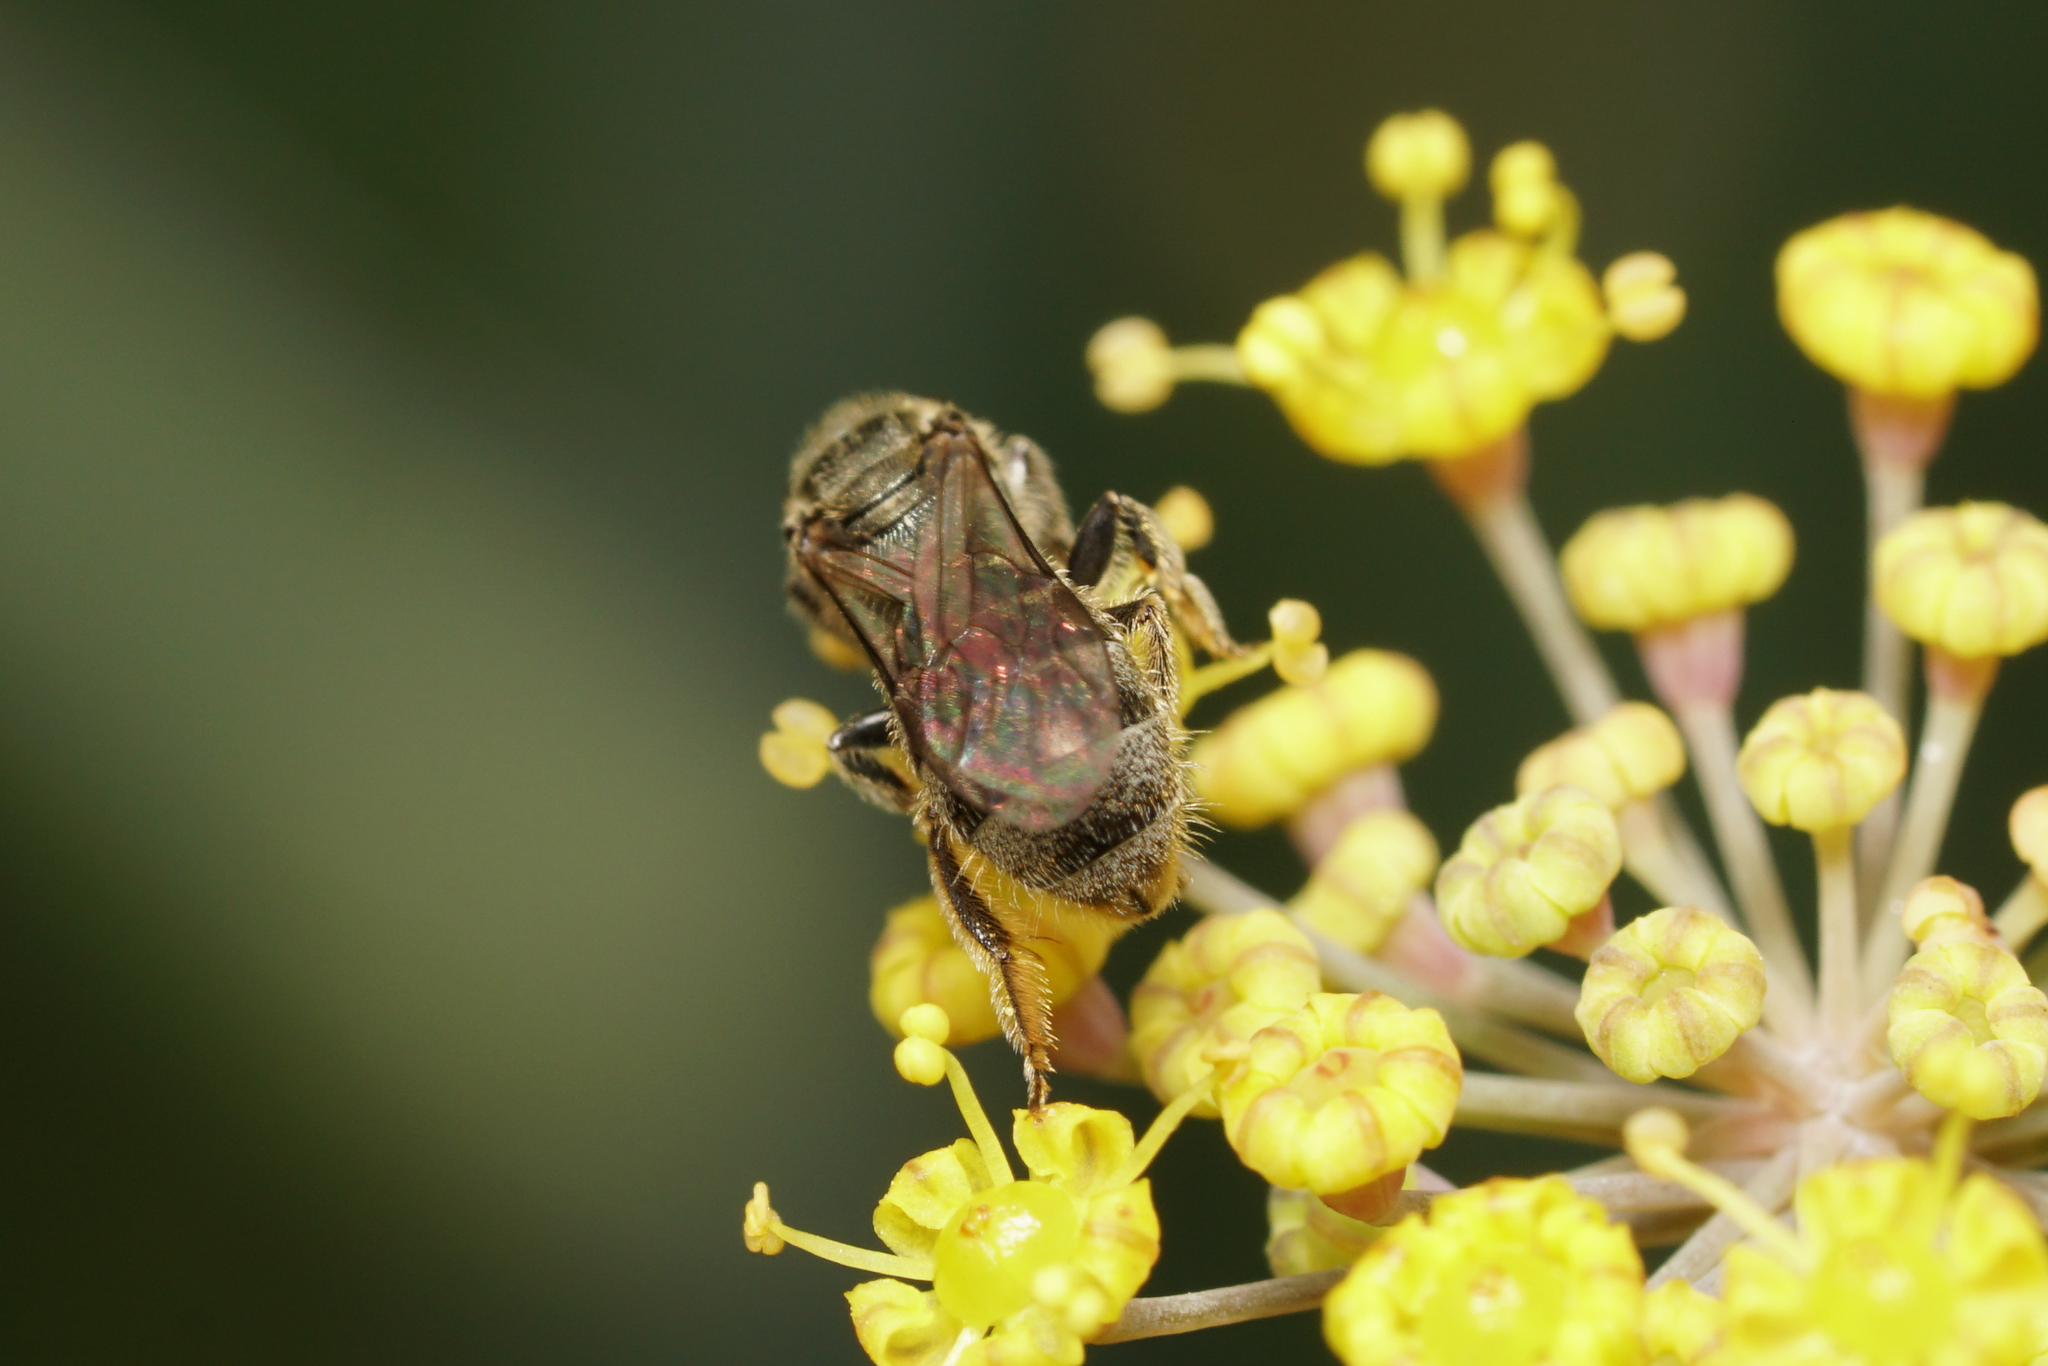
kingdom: Animalia
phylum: Arthropoda
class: Insecta
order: Hymenoptera
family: Halictidae
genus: Dialictus
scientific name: Dialictus
